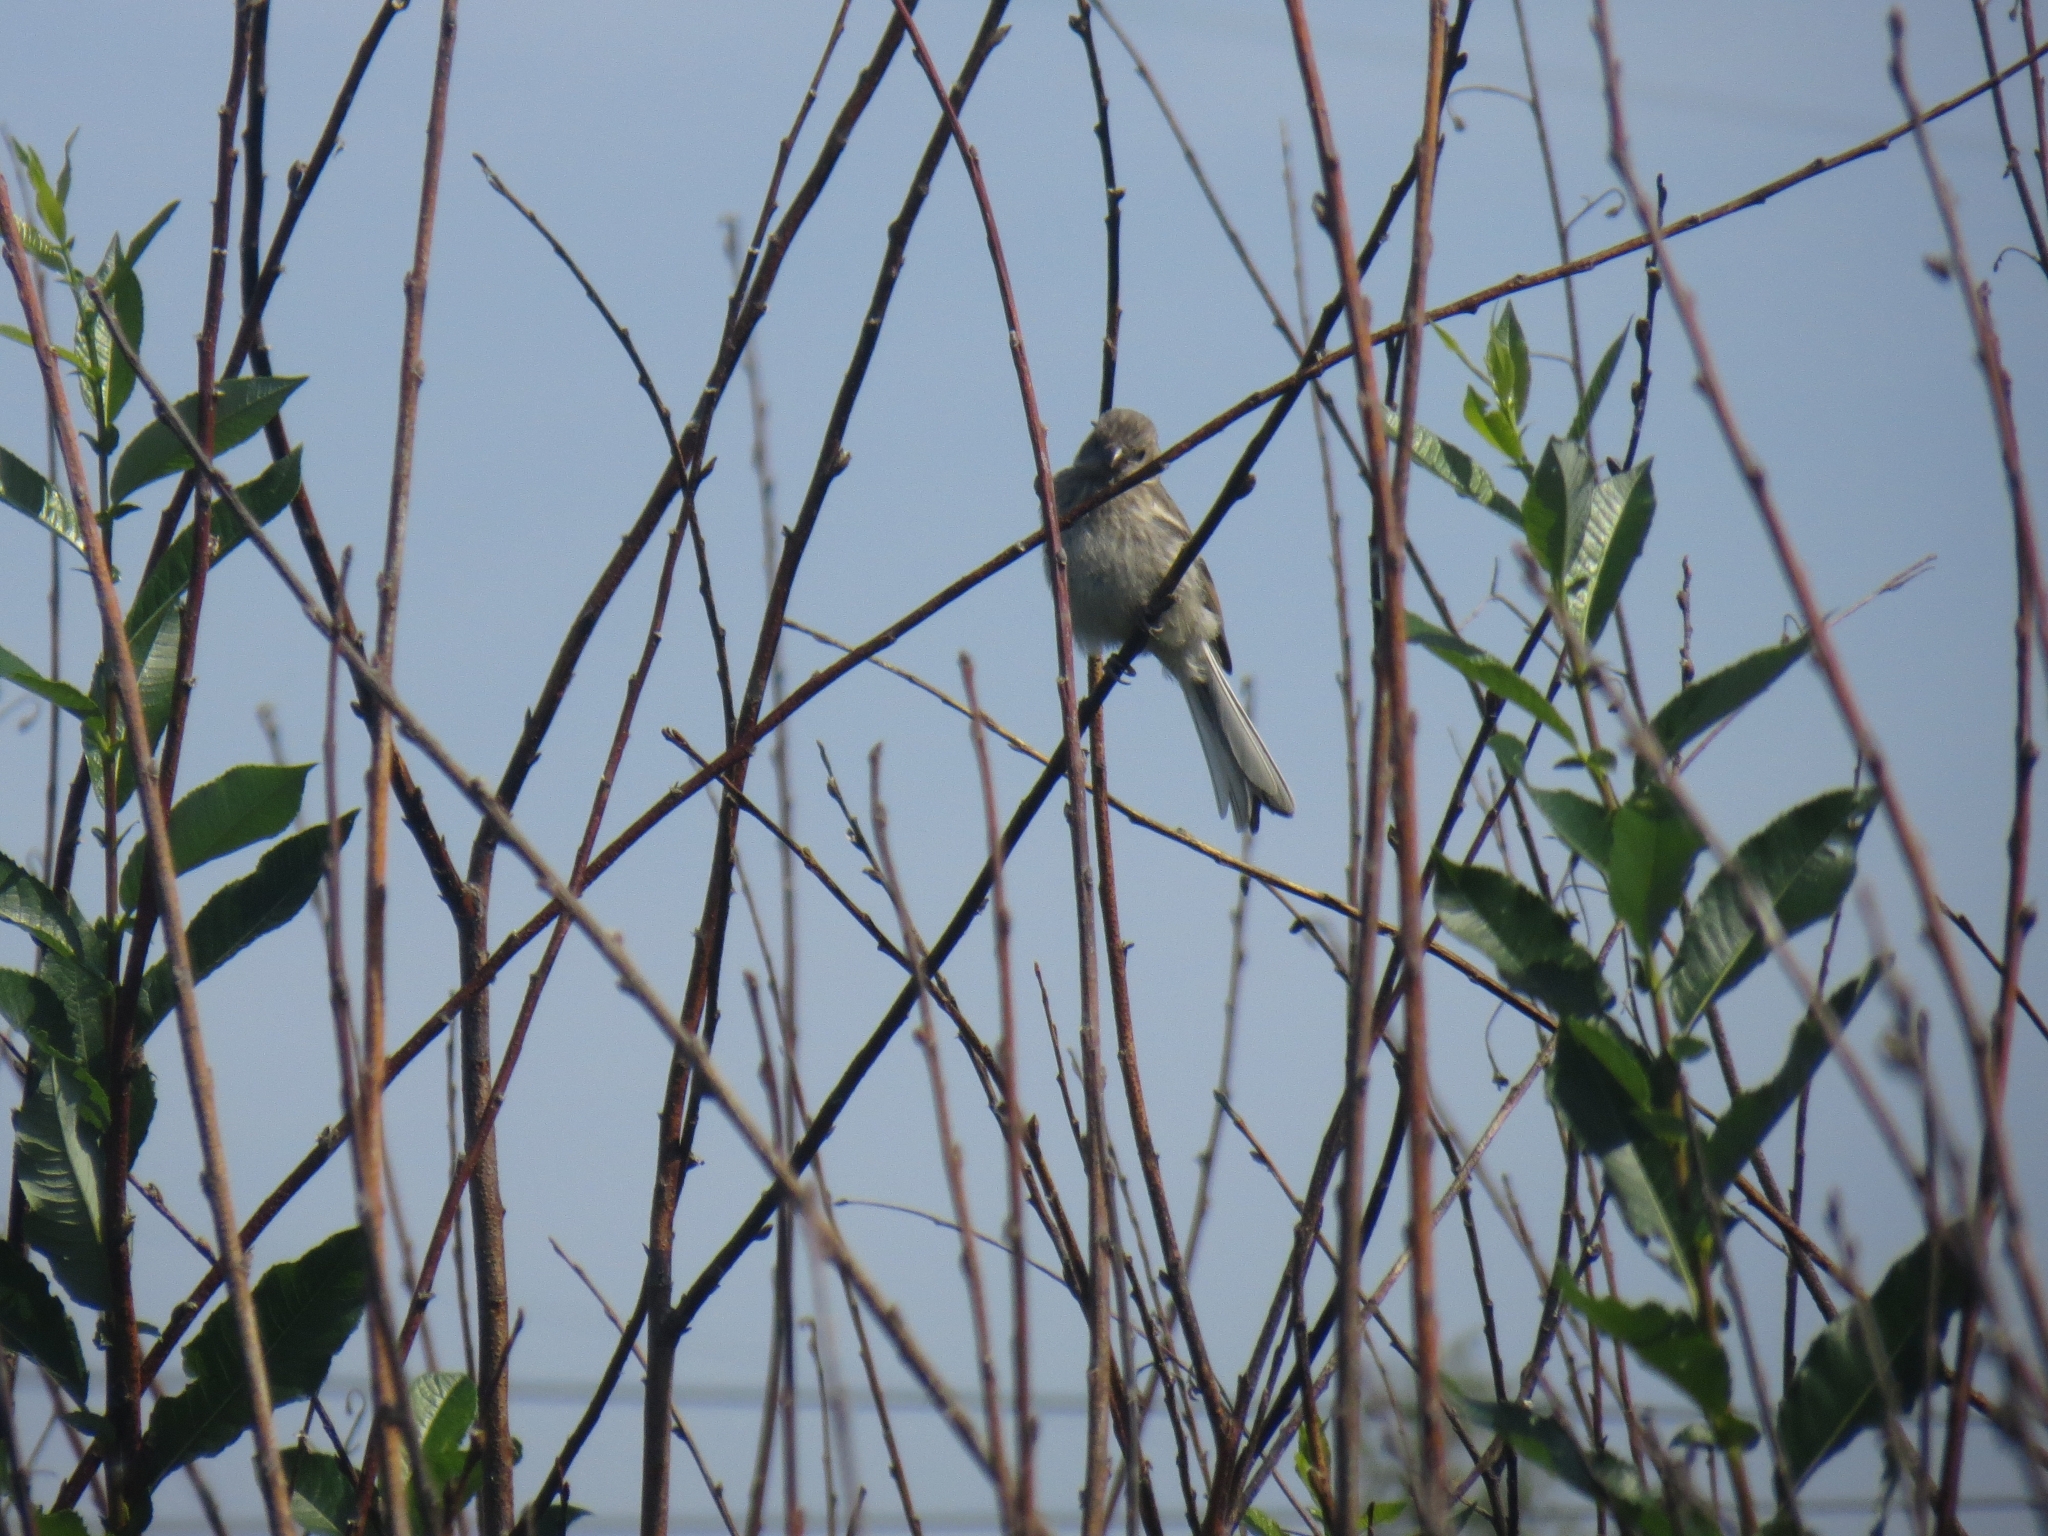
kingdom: Animalia
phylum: Chordata
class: Aves
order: Passeriformes
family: Fringillidae
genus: Carpodacus
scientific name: Carpodacus sibiricus
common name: Long-tailed rosefinch
